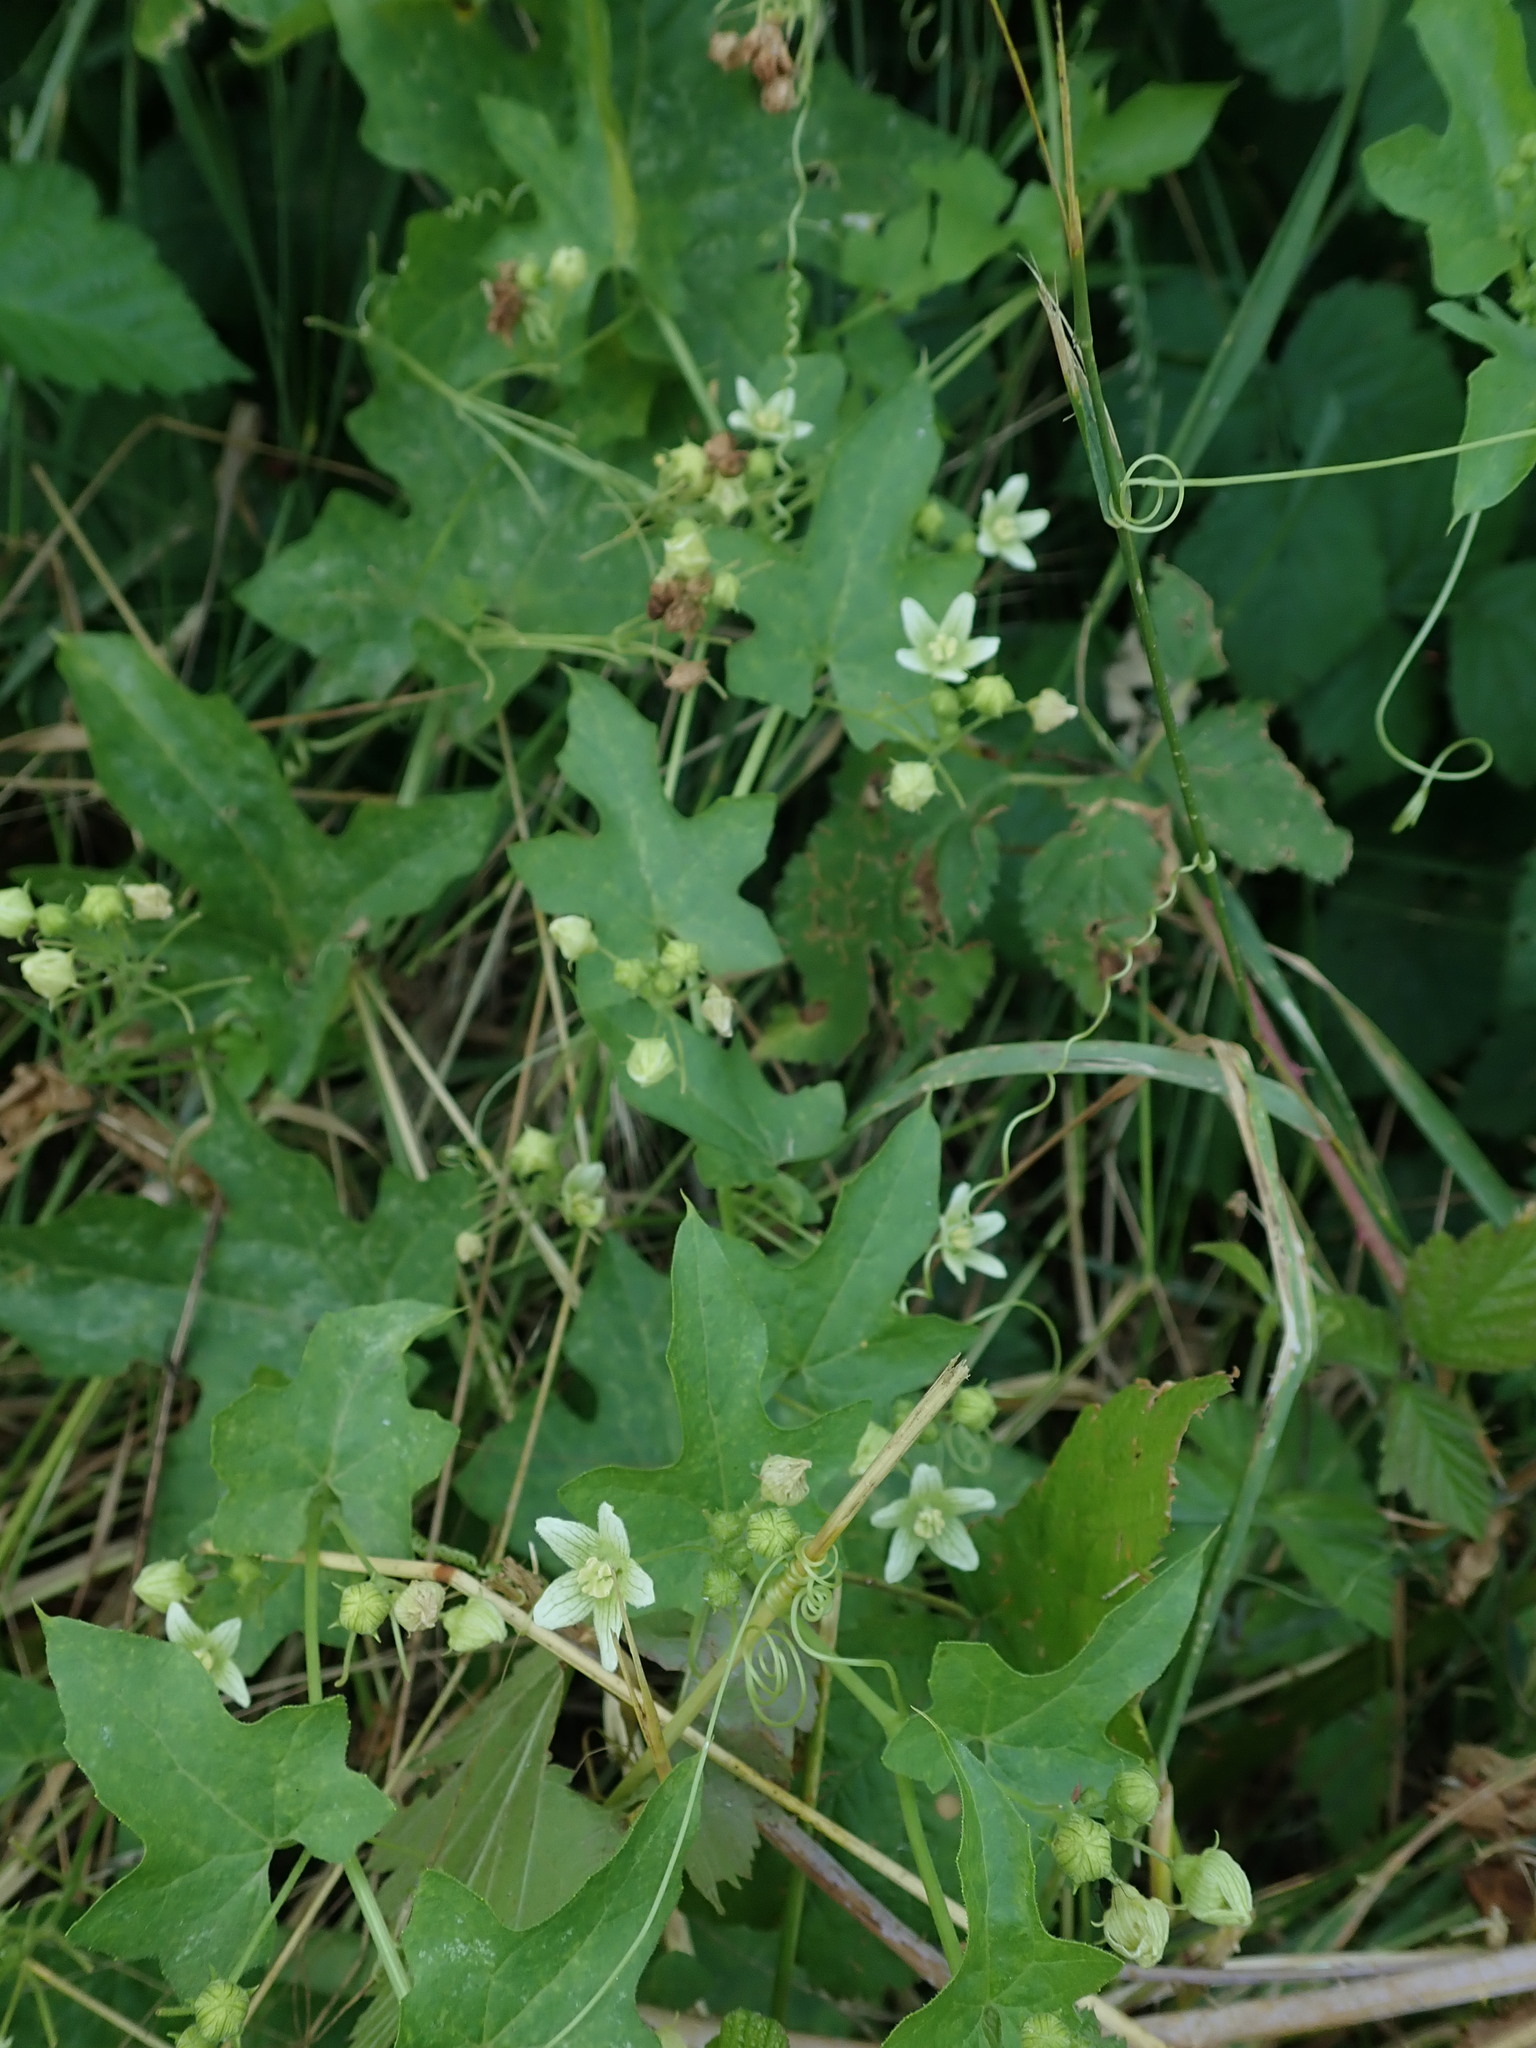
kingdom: Plantae
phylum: Tracheophyta
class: Magnoliopsida
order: Cucurbitales
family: Cucurbitaceae
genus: Bryonia
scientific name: Bryonia dioica
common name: White bryony
